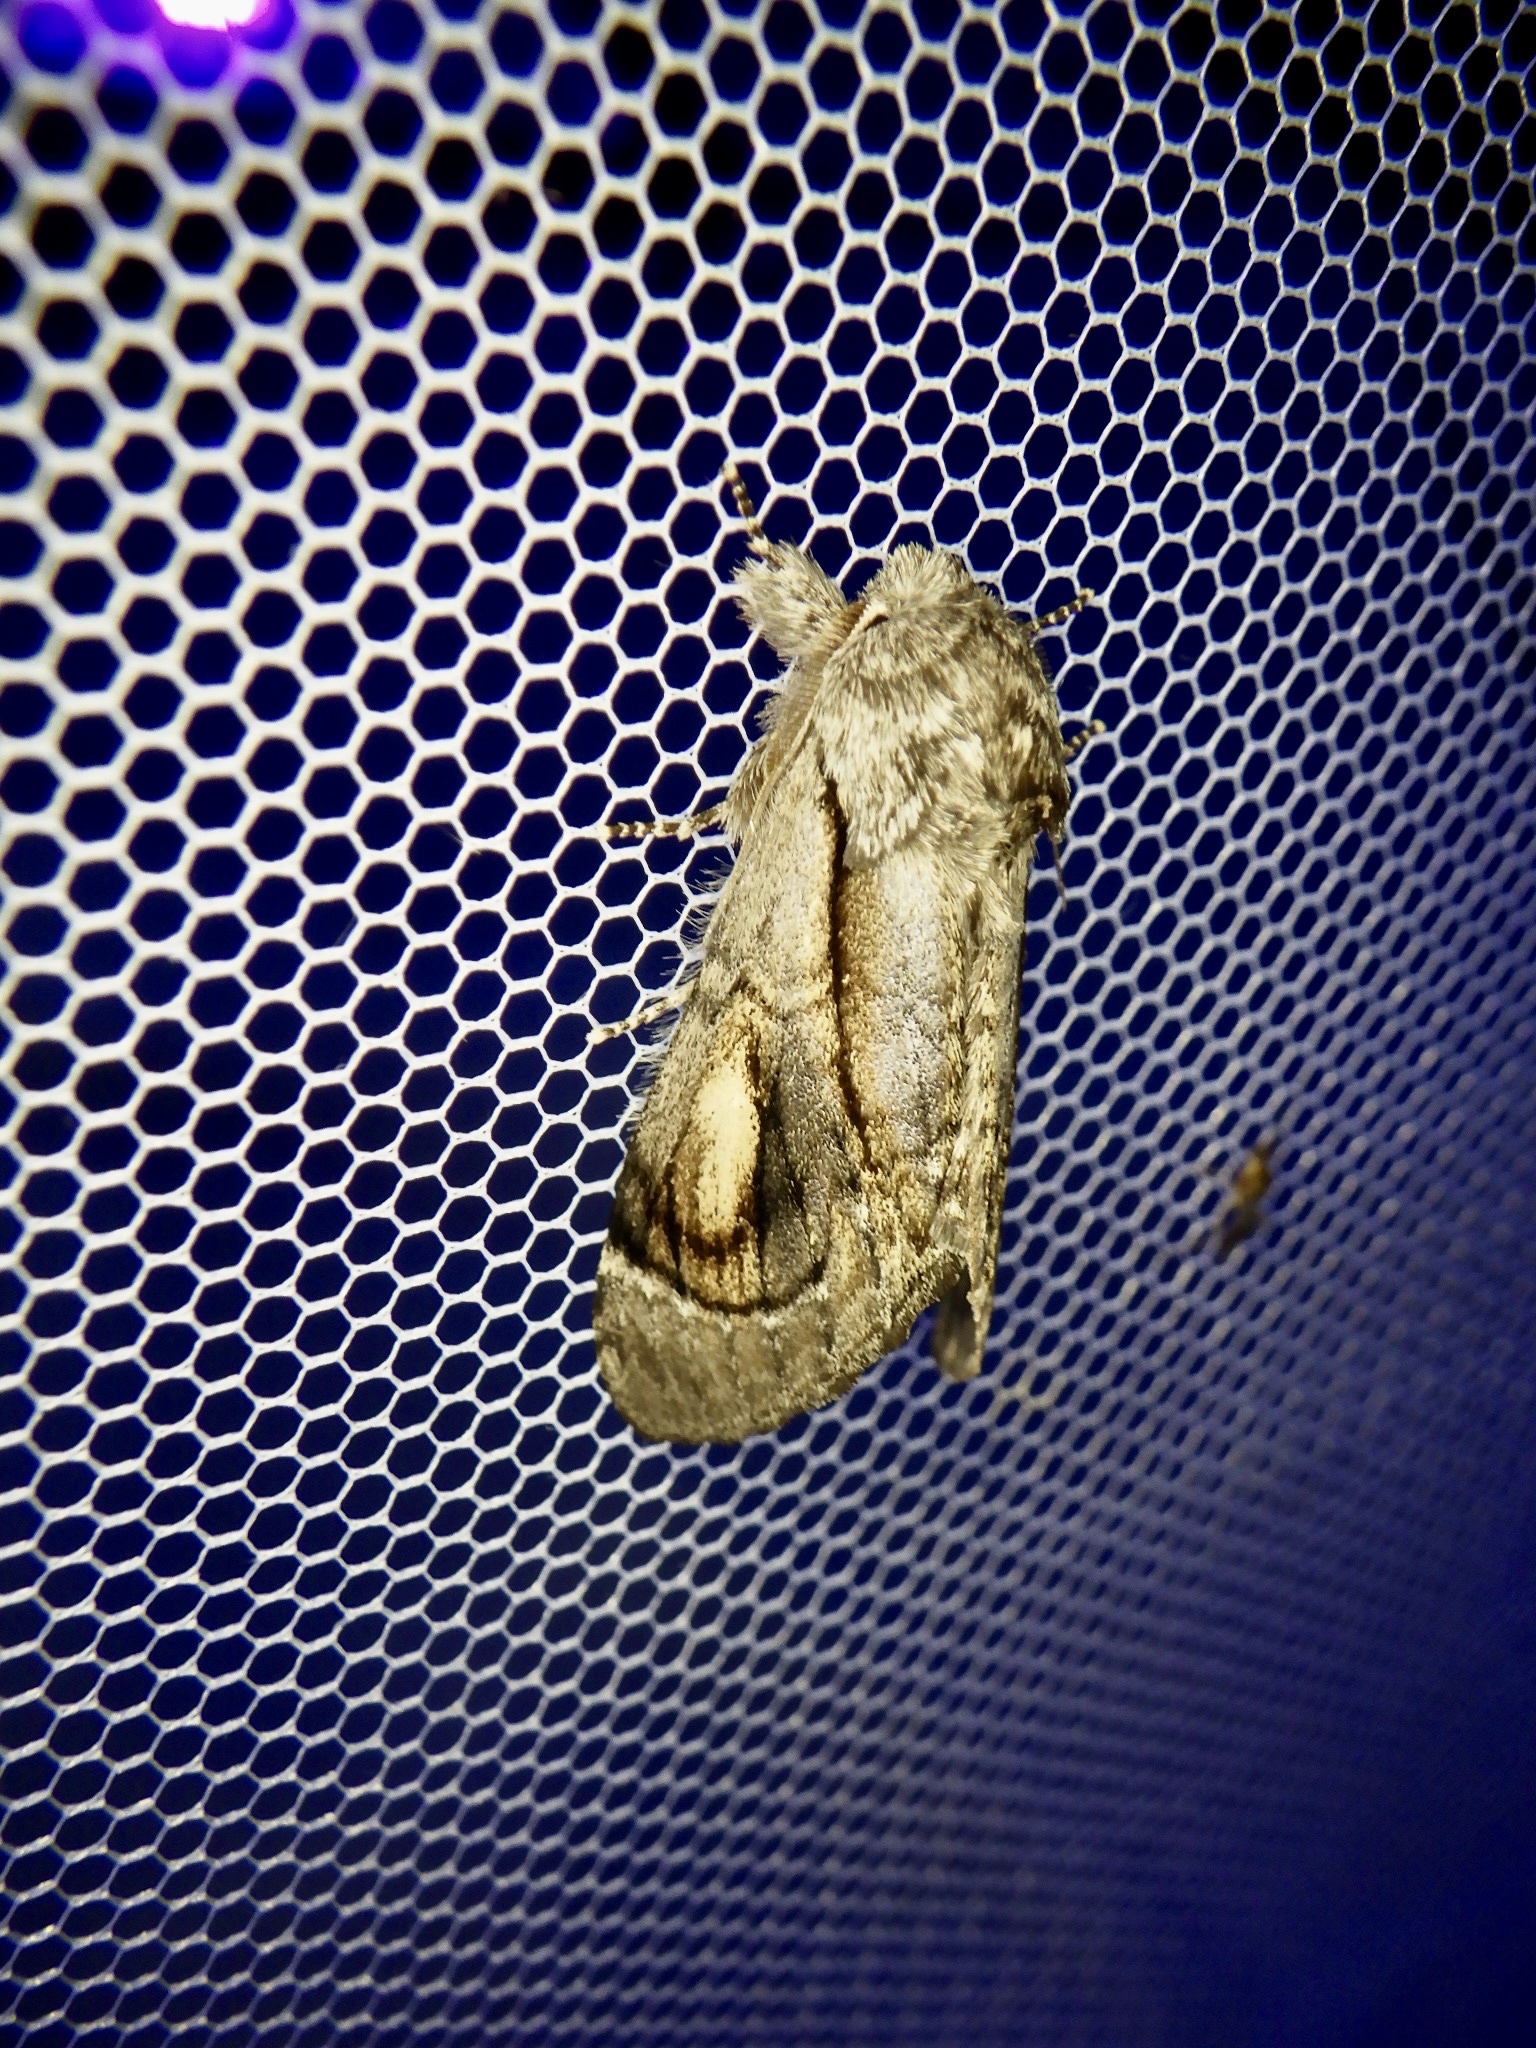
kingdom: Animalia
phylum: Arthropoda
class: Insecta
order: Lepidoptera
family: Notodontidae
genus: Fentonia
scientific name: Fentonia ocypete
